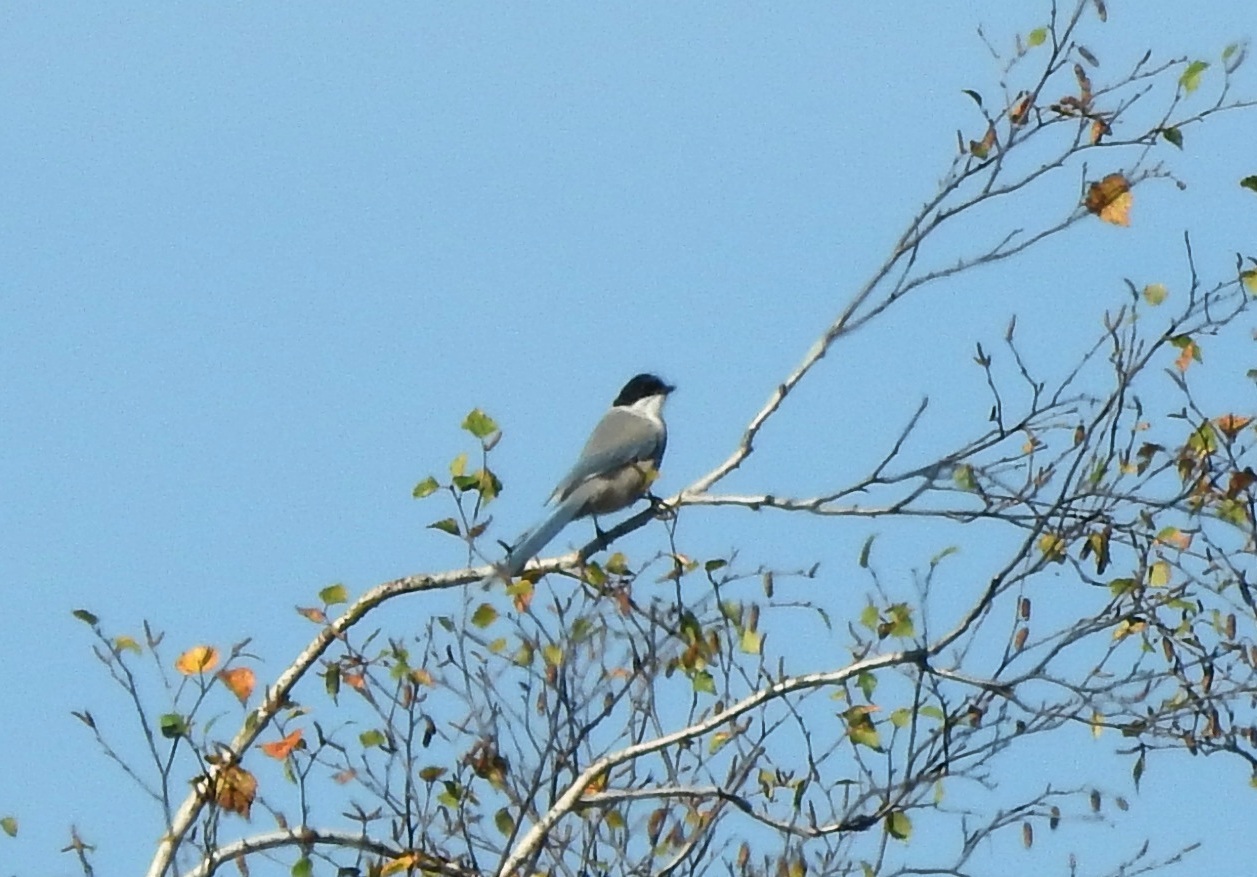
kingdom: Animalia
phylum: Chordata
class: Aves
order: Passeriformes
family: Corvidae
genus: Cyanopica
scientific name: Cyanopica cyanus
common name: Azure-winged magpie
